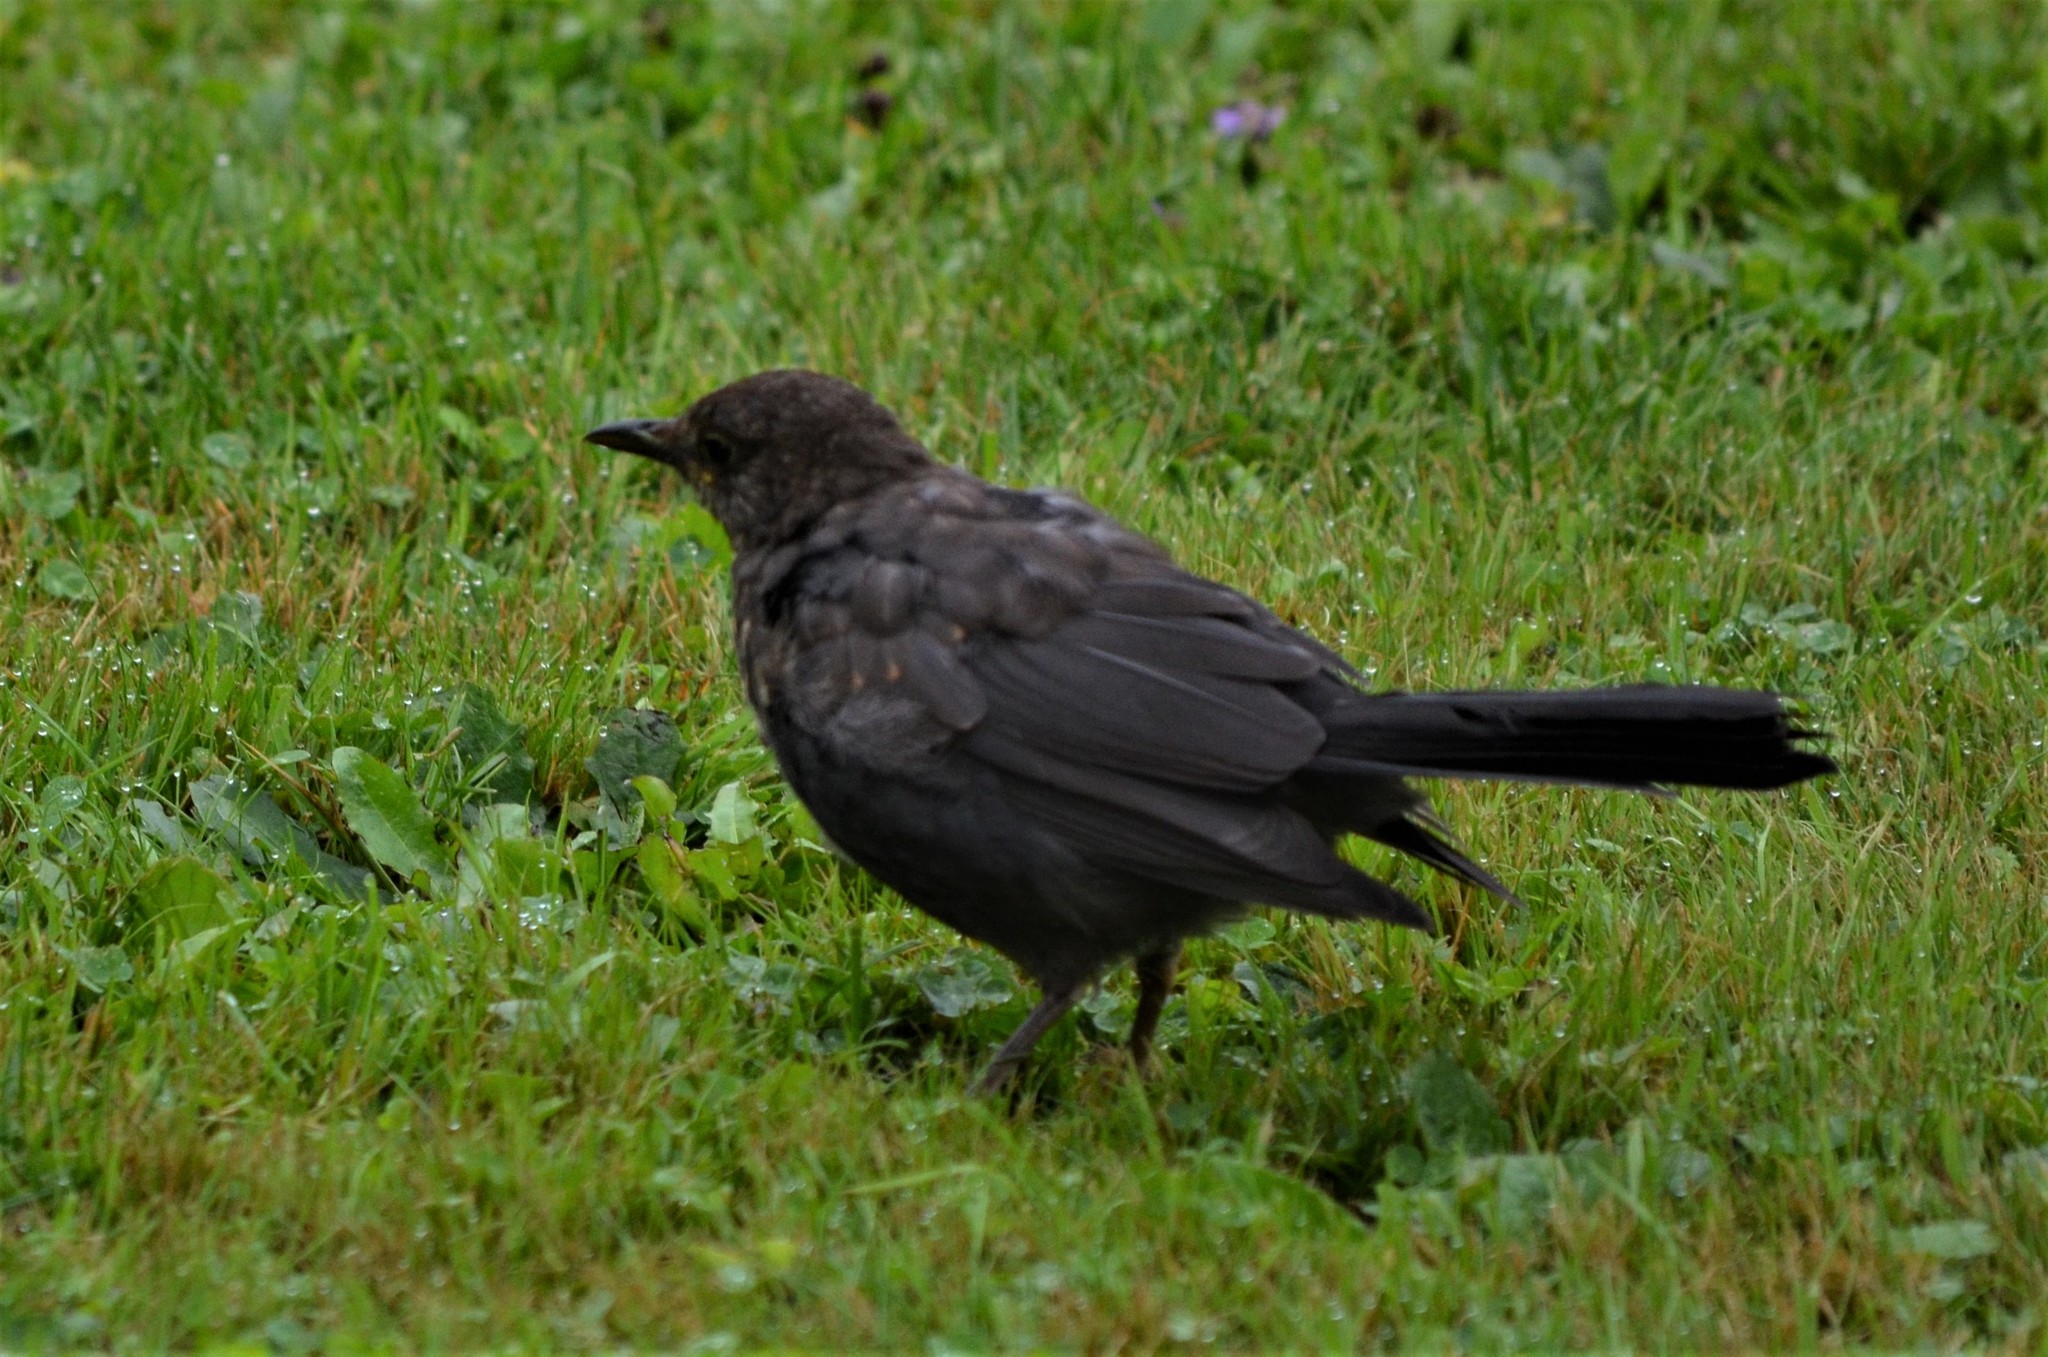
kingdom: Animalia
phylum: Chordata
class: Aves
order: Passeriformes
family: Turdidae
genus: Turdus
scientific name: Turdus merula
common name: Common blackbird
